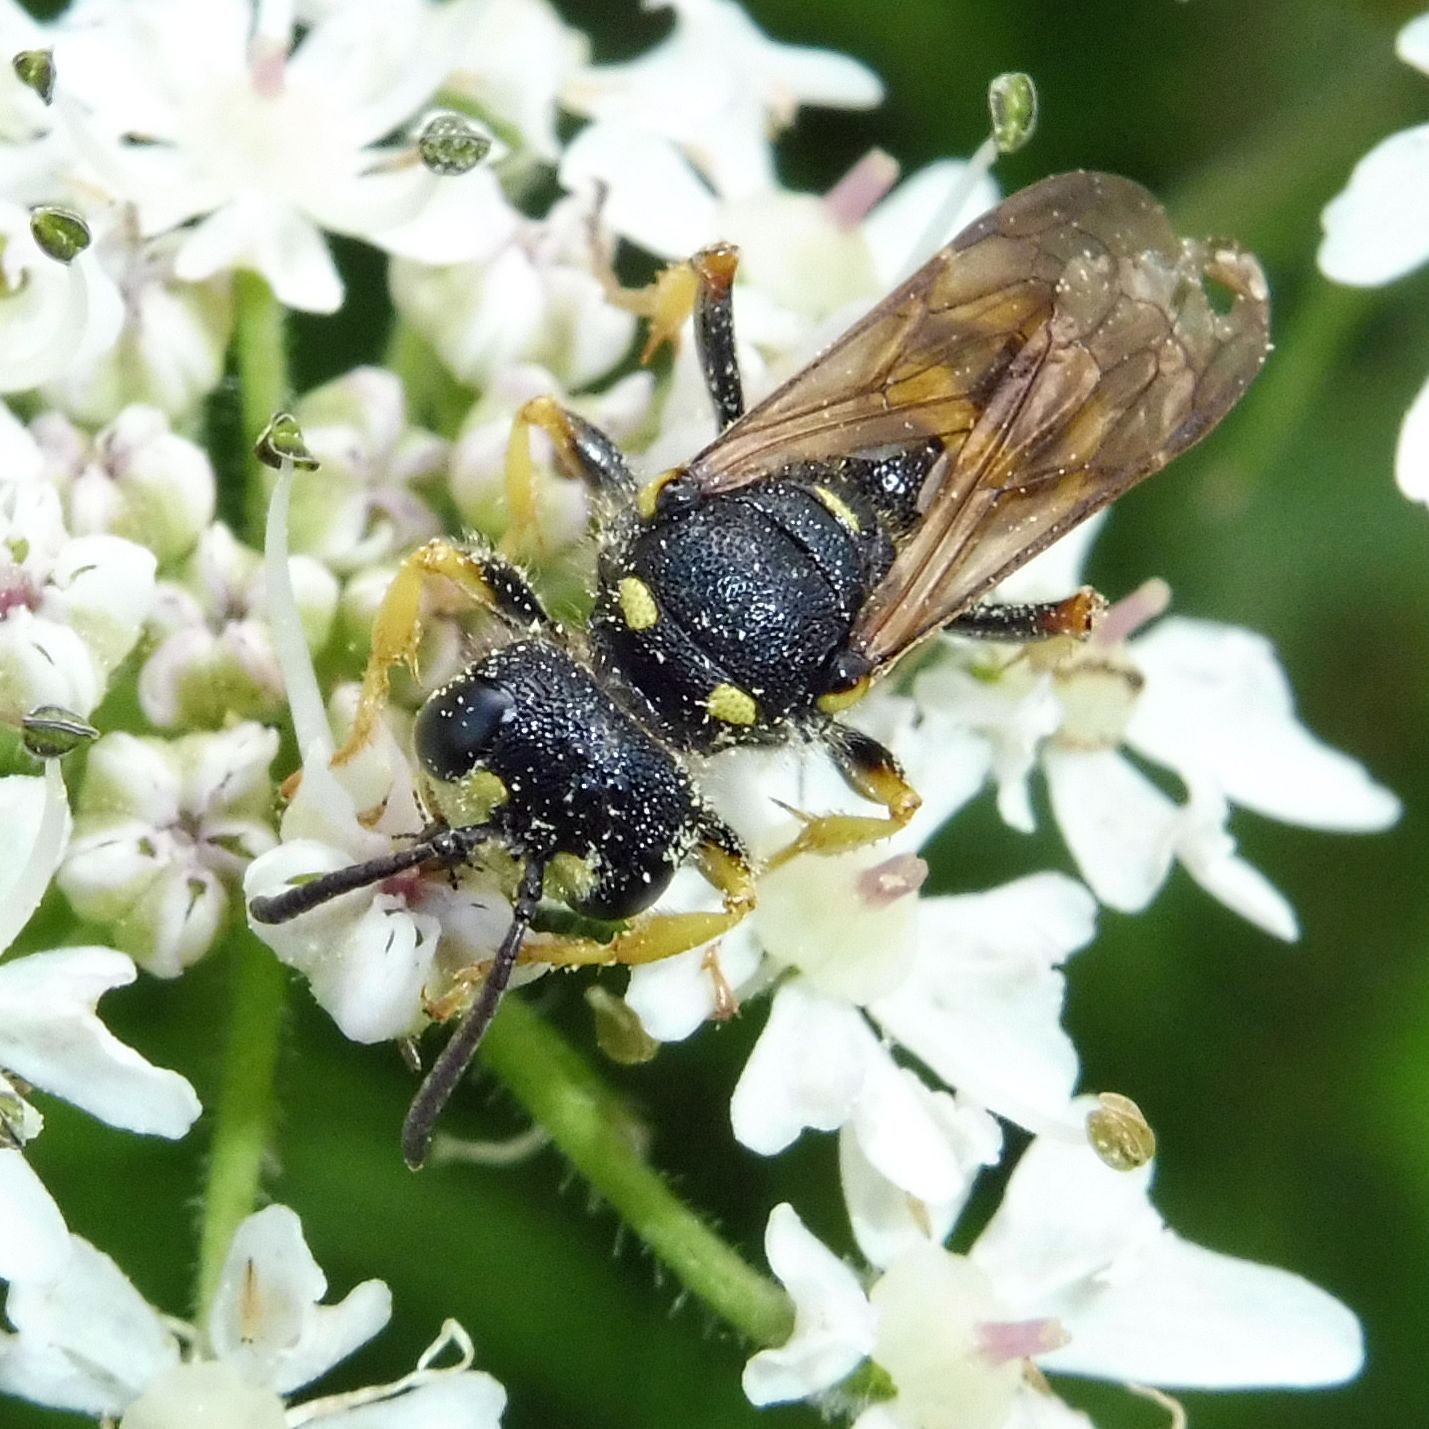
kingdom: Animalia
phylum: Arthropoda
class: Insecta
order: Hymenoptera
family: Crabronidae
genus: Cerceris
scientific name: Cerceris rybyensis
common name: Ornate tailed digger wasp
